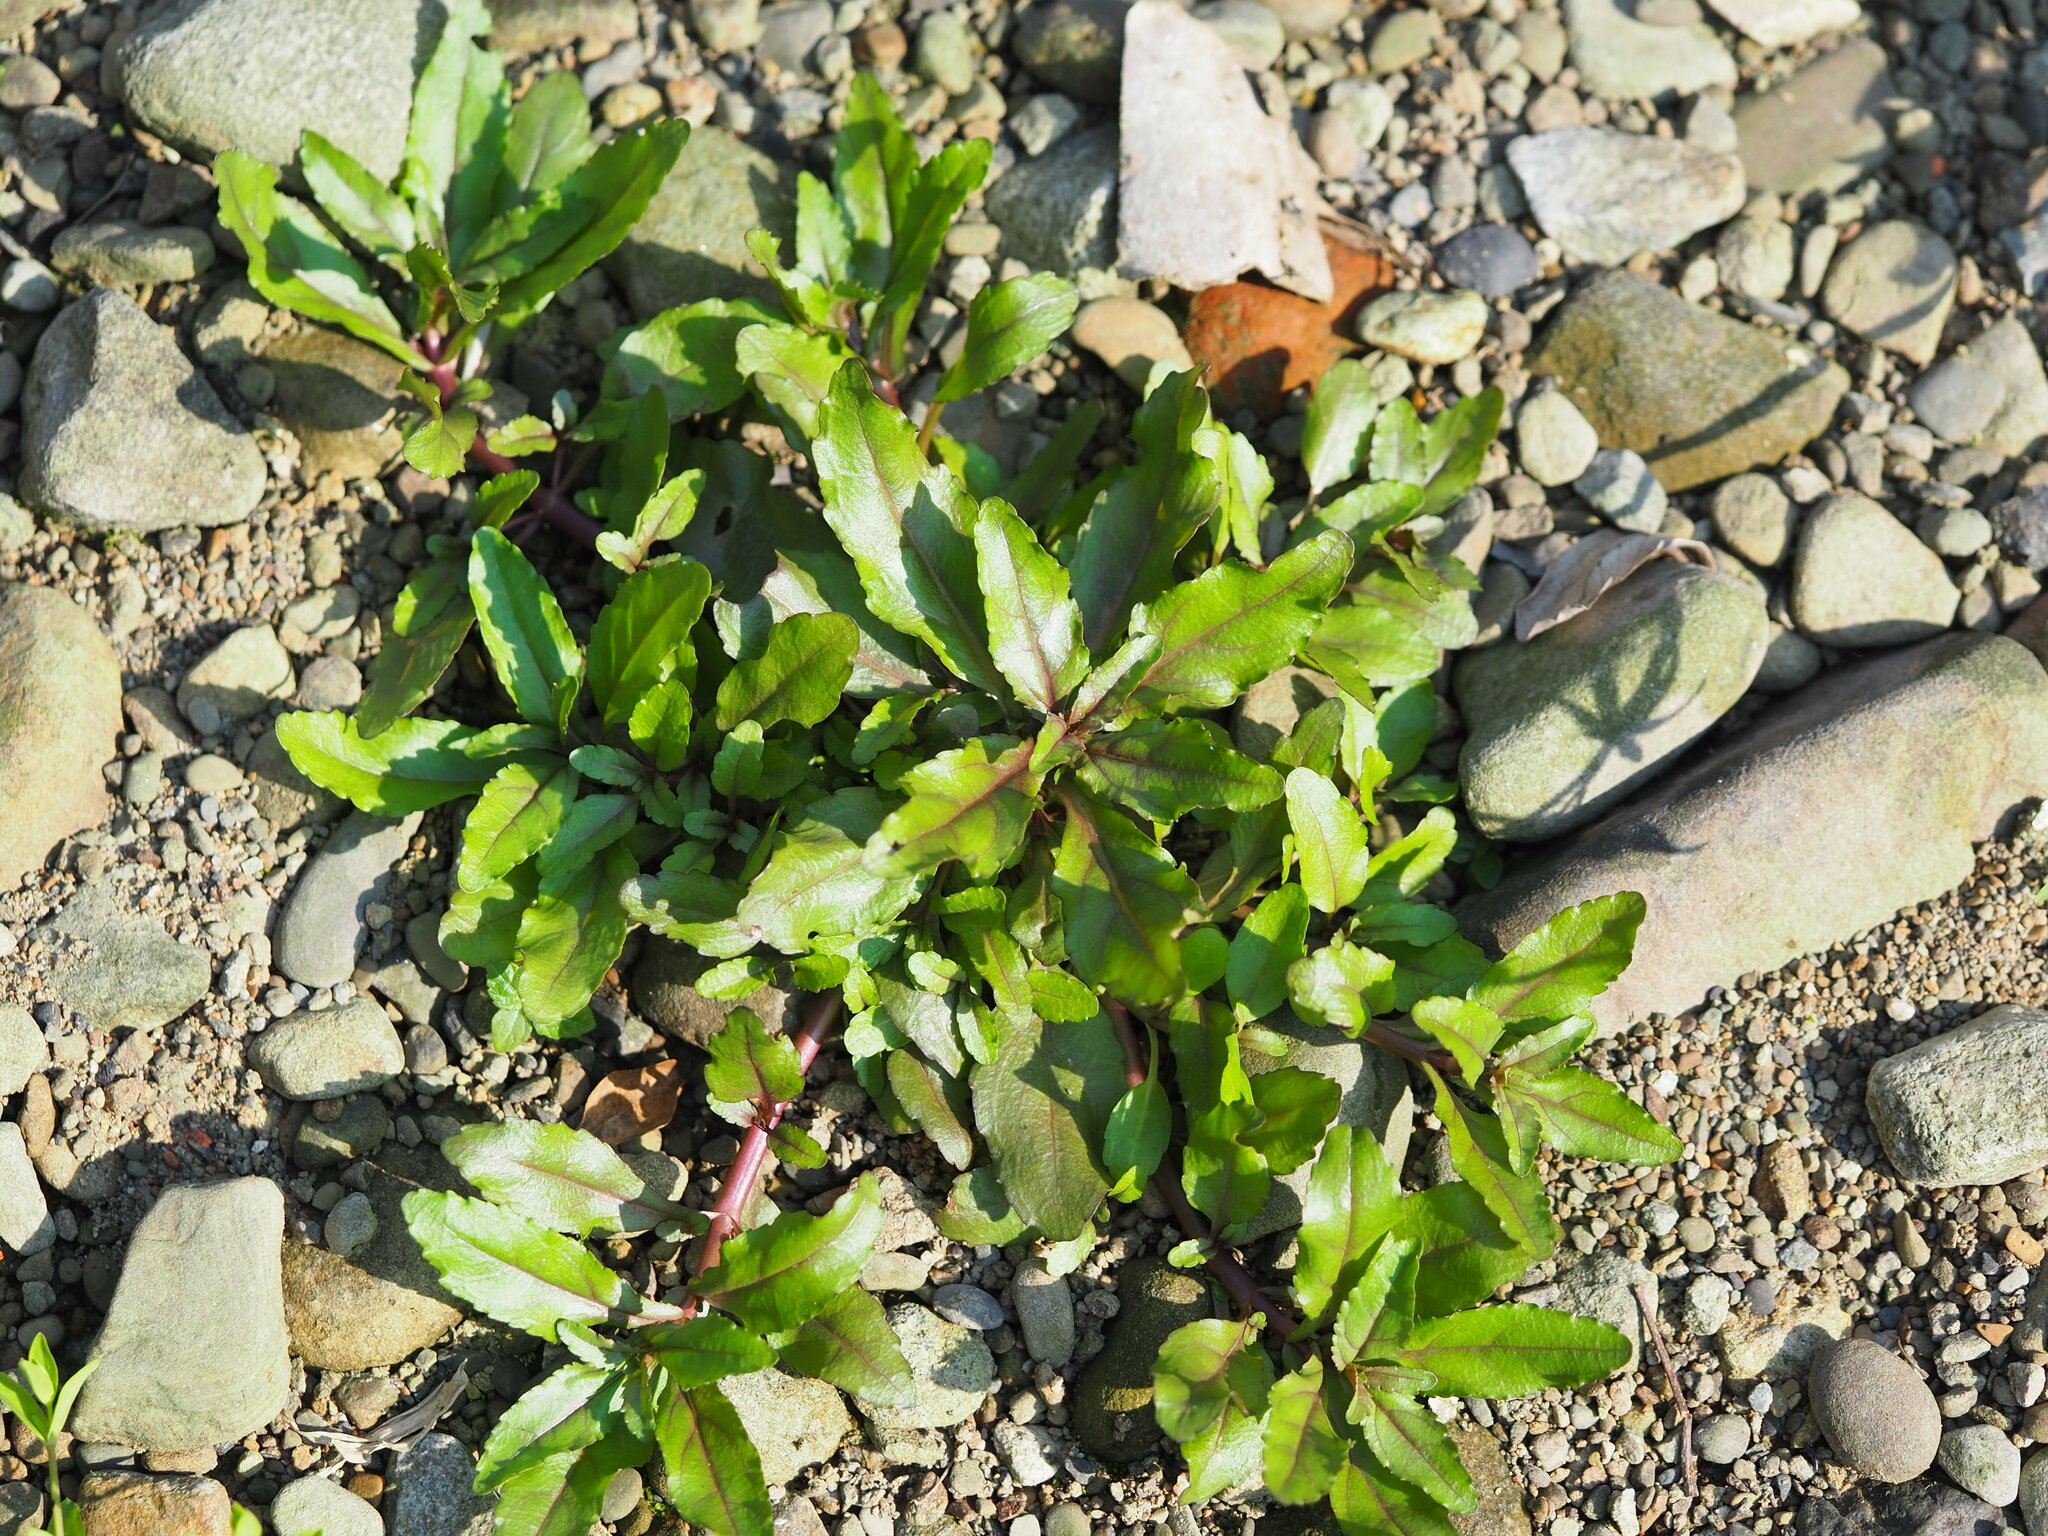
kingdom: Plantae
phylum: Tracheophyta
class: Magnoliopsida
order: Lamiales
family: Plantaginaceae
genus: Veronica
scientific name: Veronica undulata
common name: Undulate speedwell
